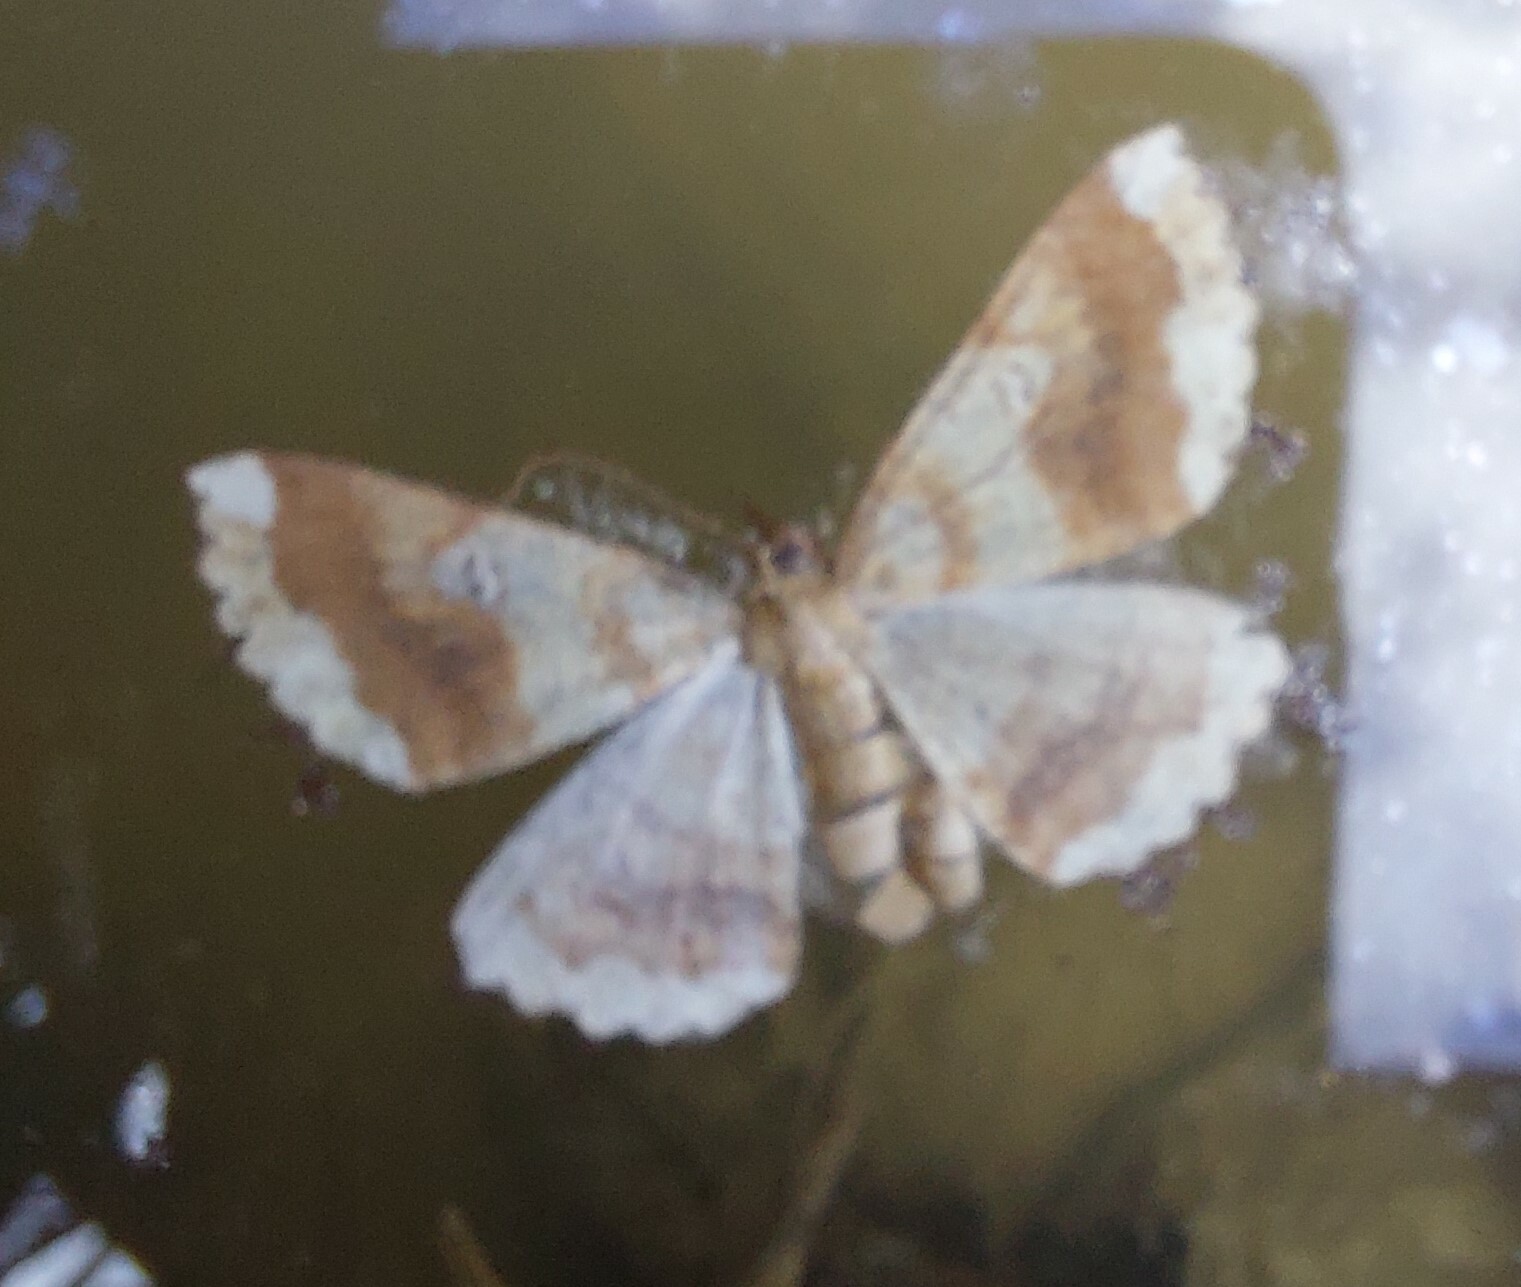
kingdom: Animalia
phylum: Arthropoda
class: Insecta
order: Lepidoptera
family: Geometridae
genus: Cleora
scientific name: Cleora scriptaria
